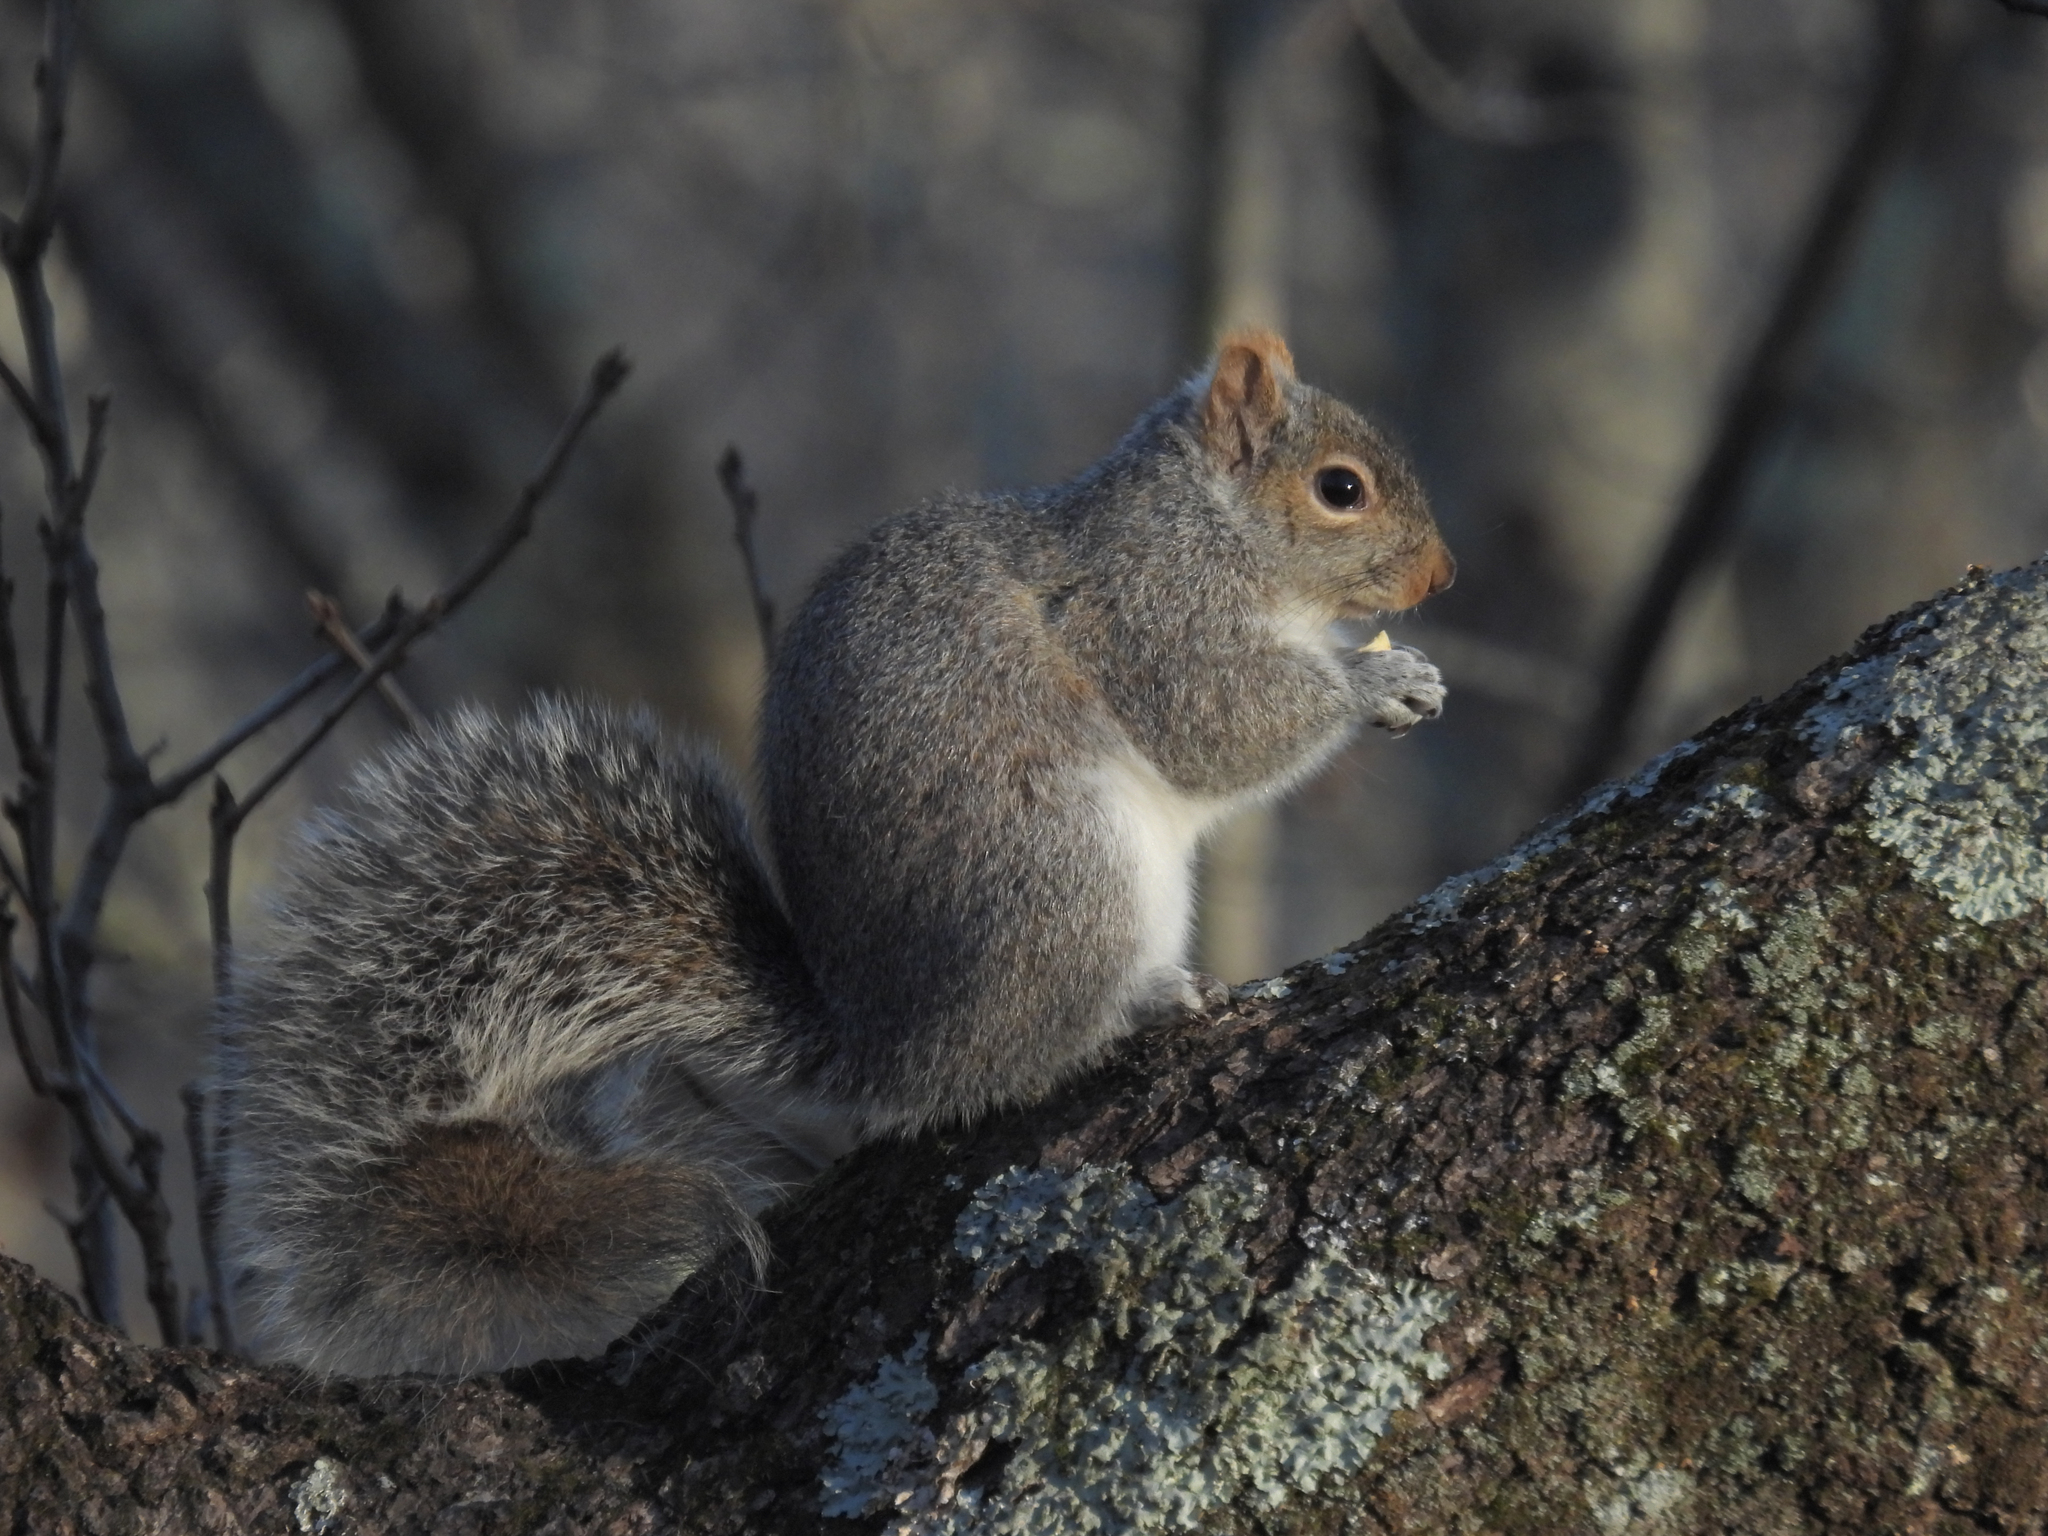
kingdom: Animalia
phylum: Chordata
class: Mammalia
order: Rodentia
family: Sciuridae
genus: Sciurus
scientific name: Sciurus carolinensis
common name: Eastern gray squirrel
